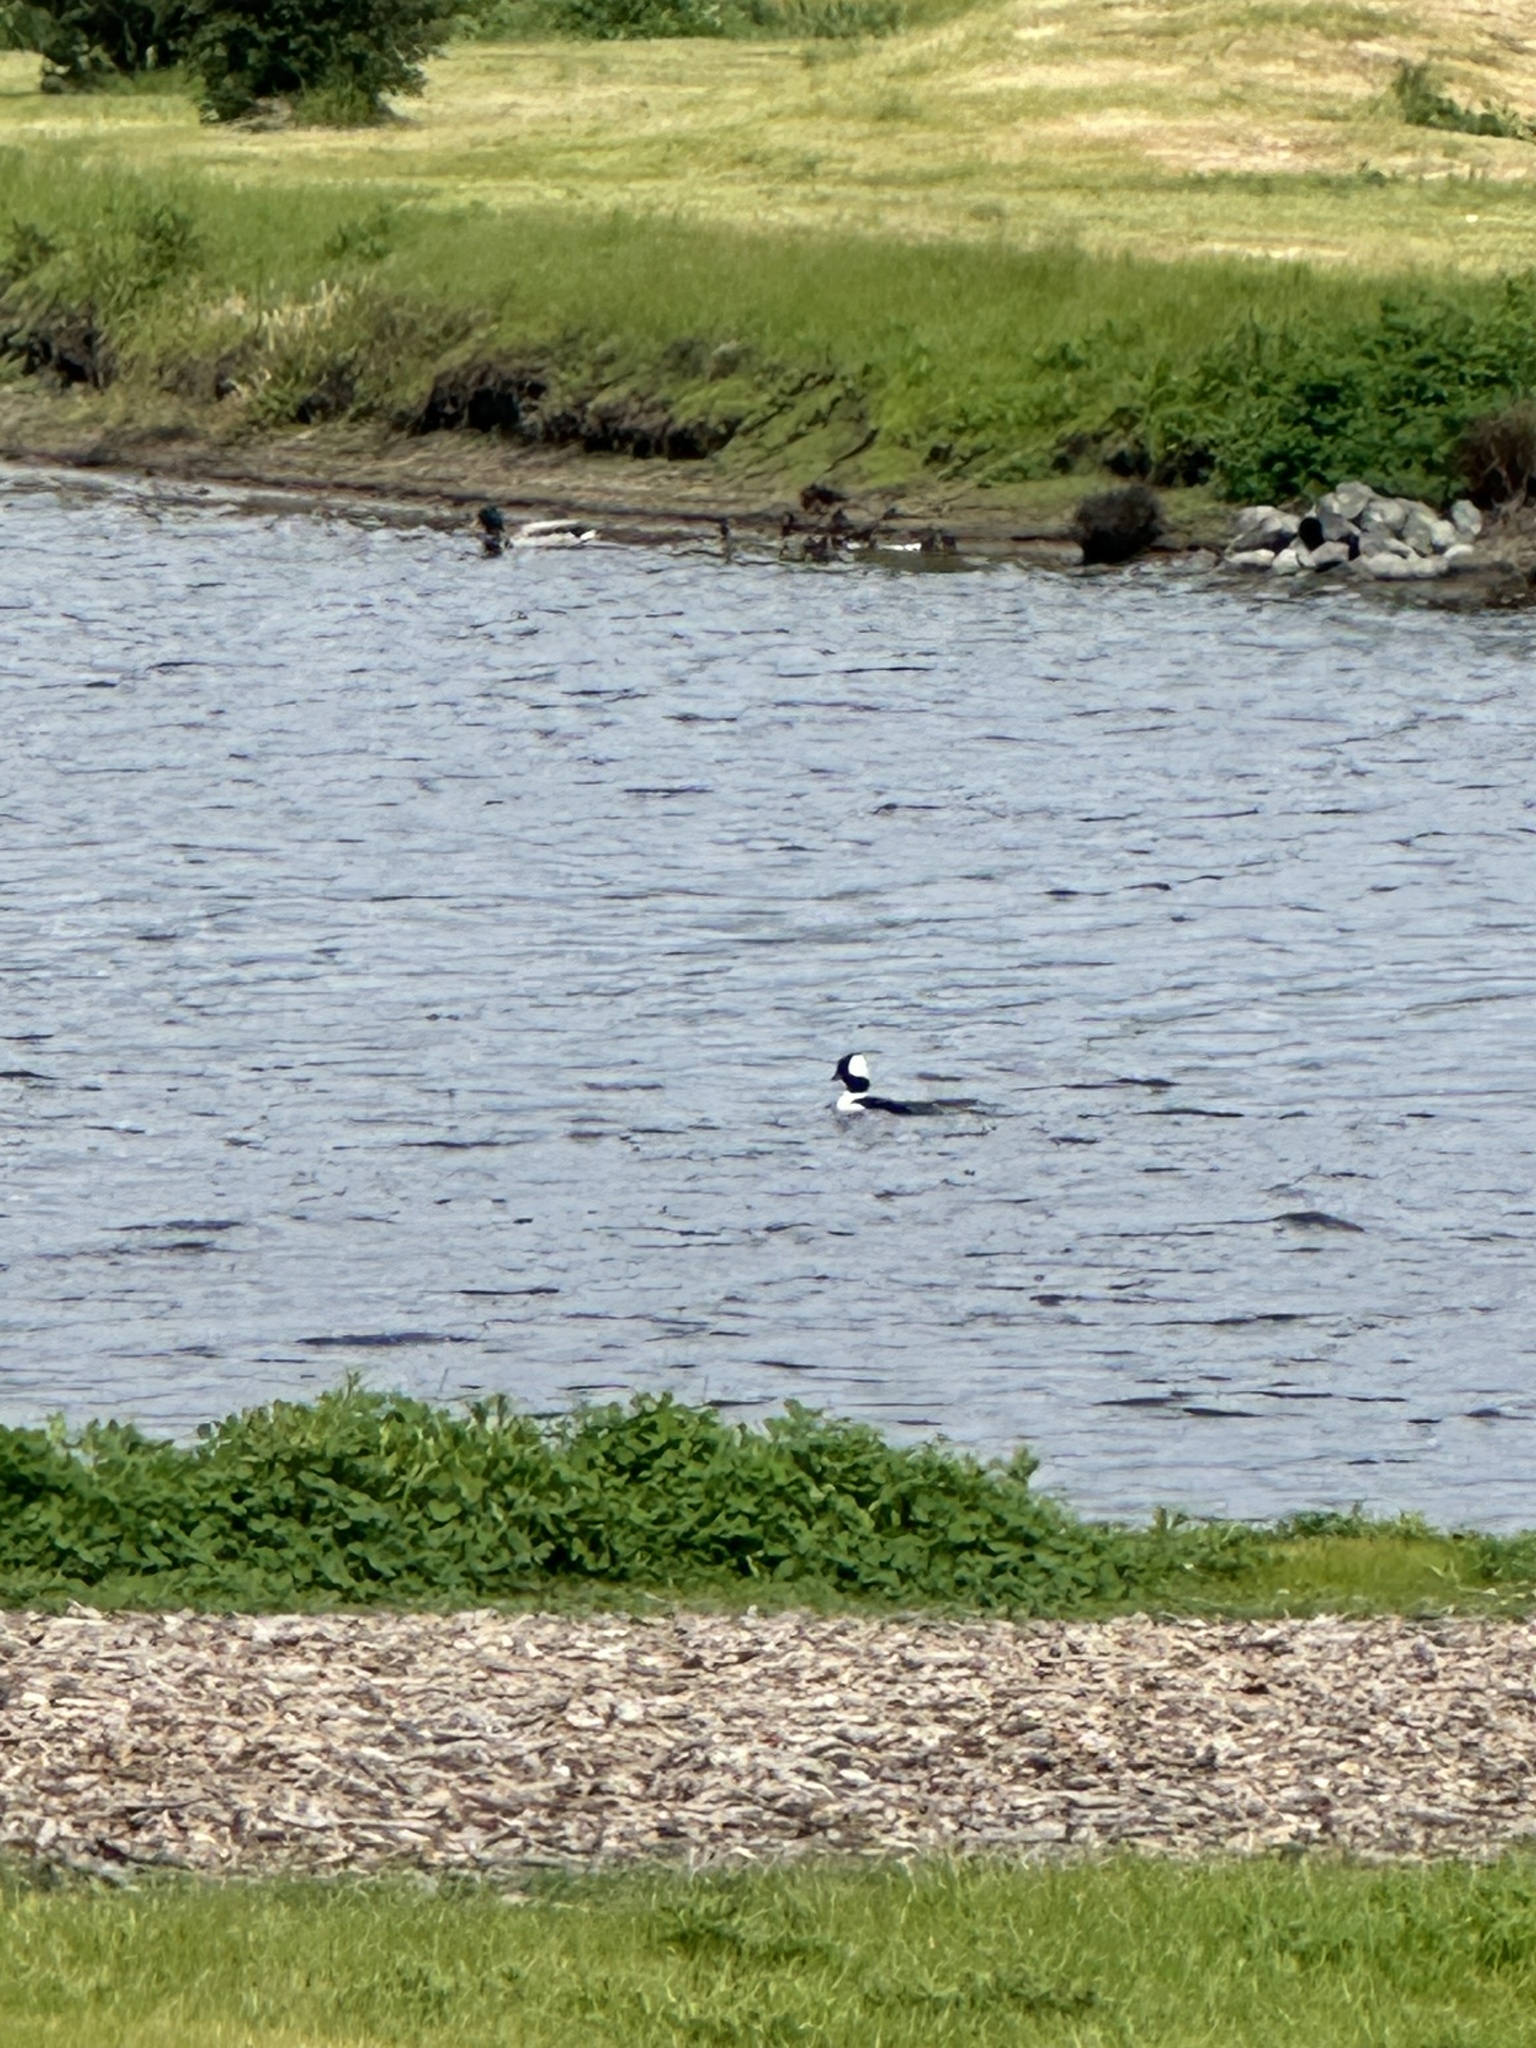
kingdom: Animalia
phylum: Chordata
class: Aves
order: Anseriformes
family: Anatidae
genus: Bucephala
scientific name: Bucephala albeola
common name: Bufflehead
